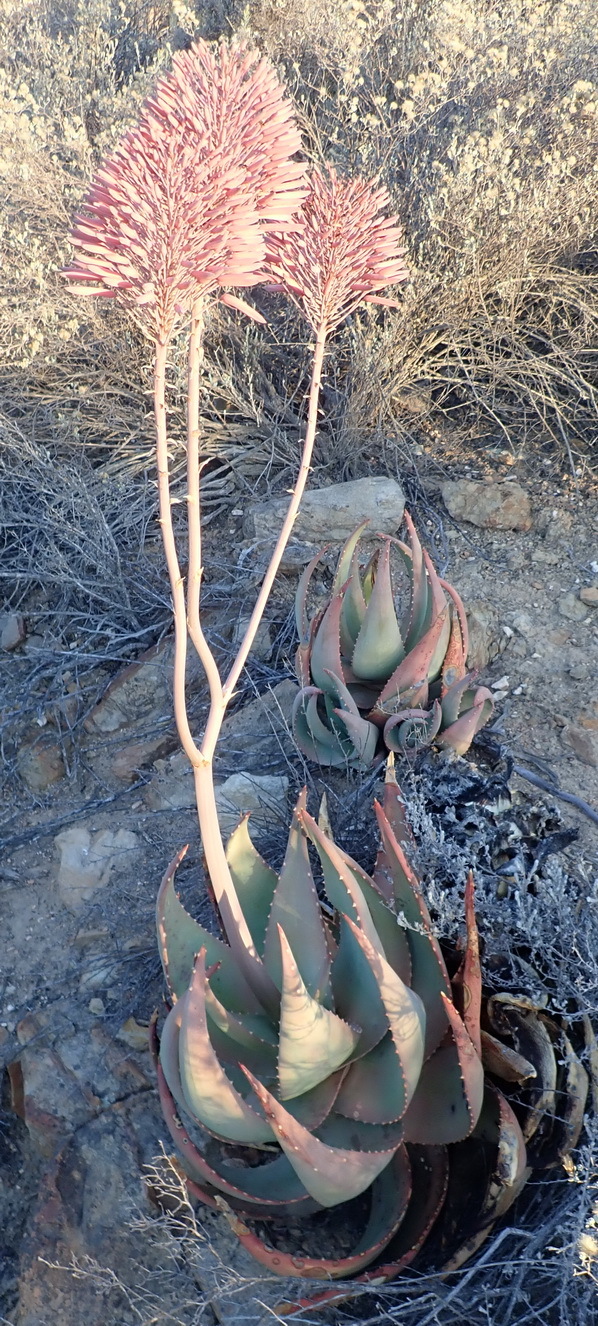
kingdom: Plantae
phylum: Tracheophyta
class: Liliopsida
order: Asparagales
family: Asphodelaceae
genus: Aloe
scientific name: Aloe comptonii
